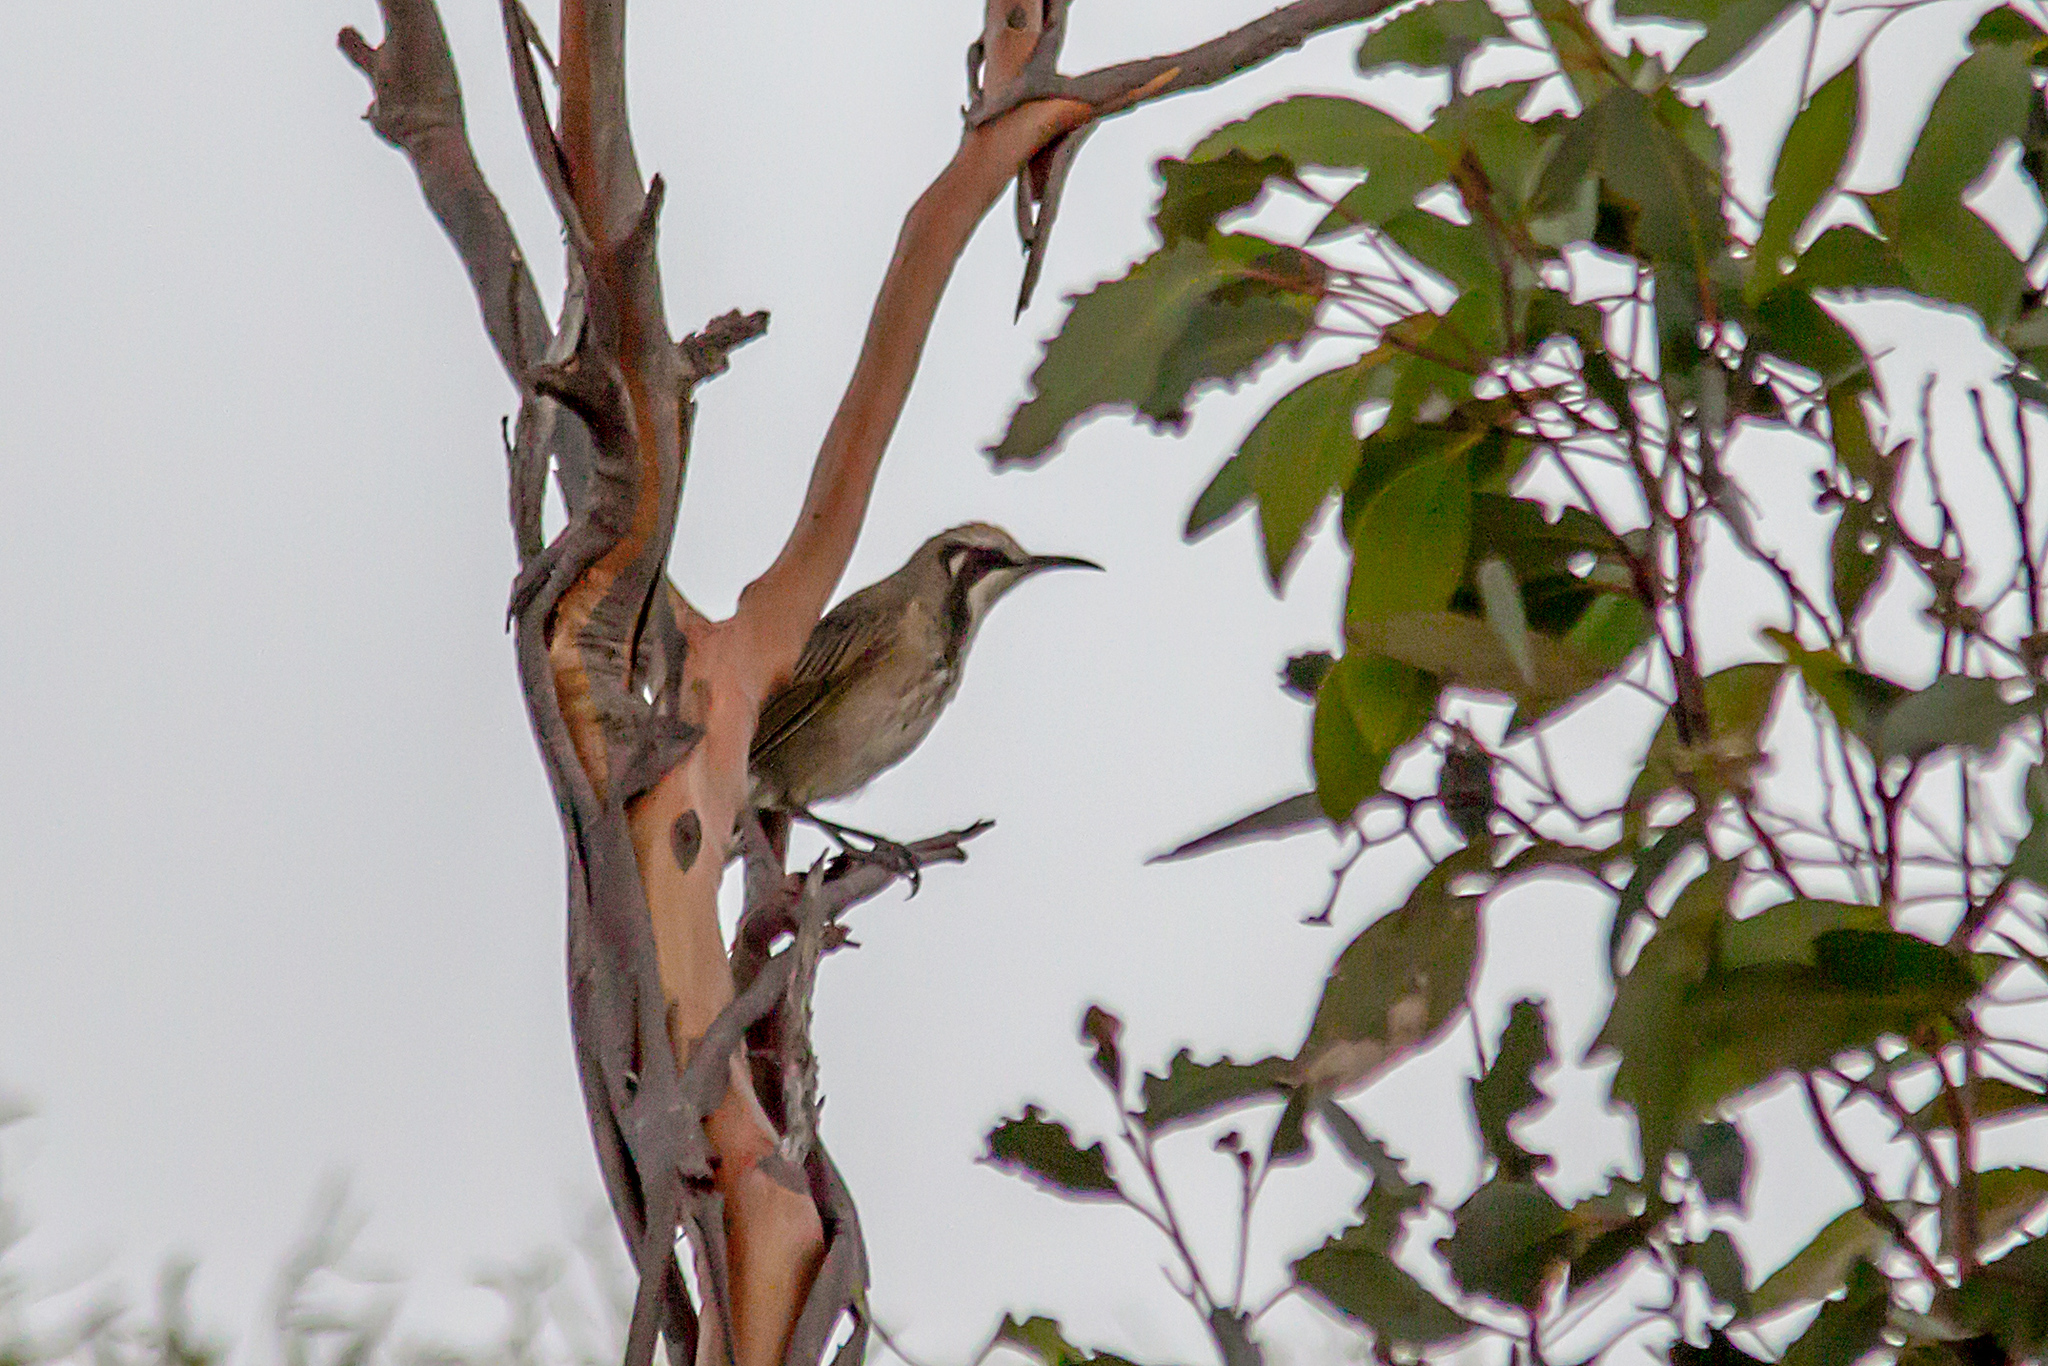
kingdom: Animalia
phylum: Chordata
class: Aves
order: Passeriformes
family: Meliphagidae
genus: Gliciphila
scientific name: Gliciphila melanops
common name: Tawny-crowned honeyeater
